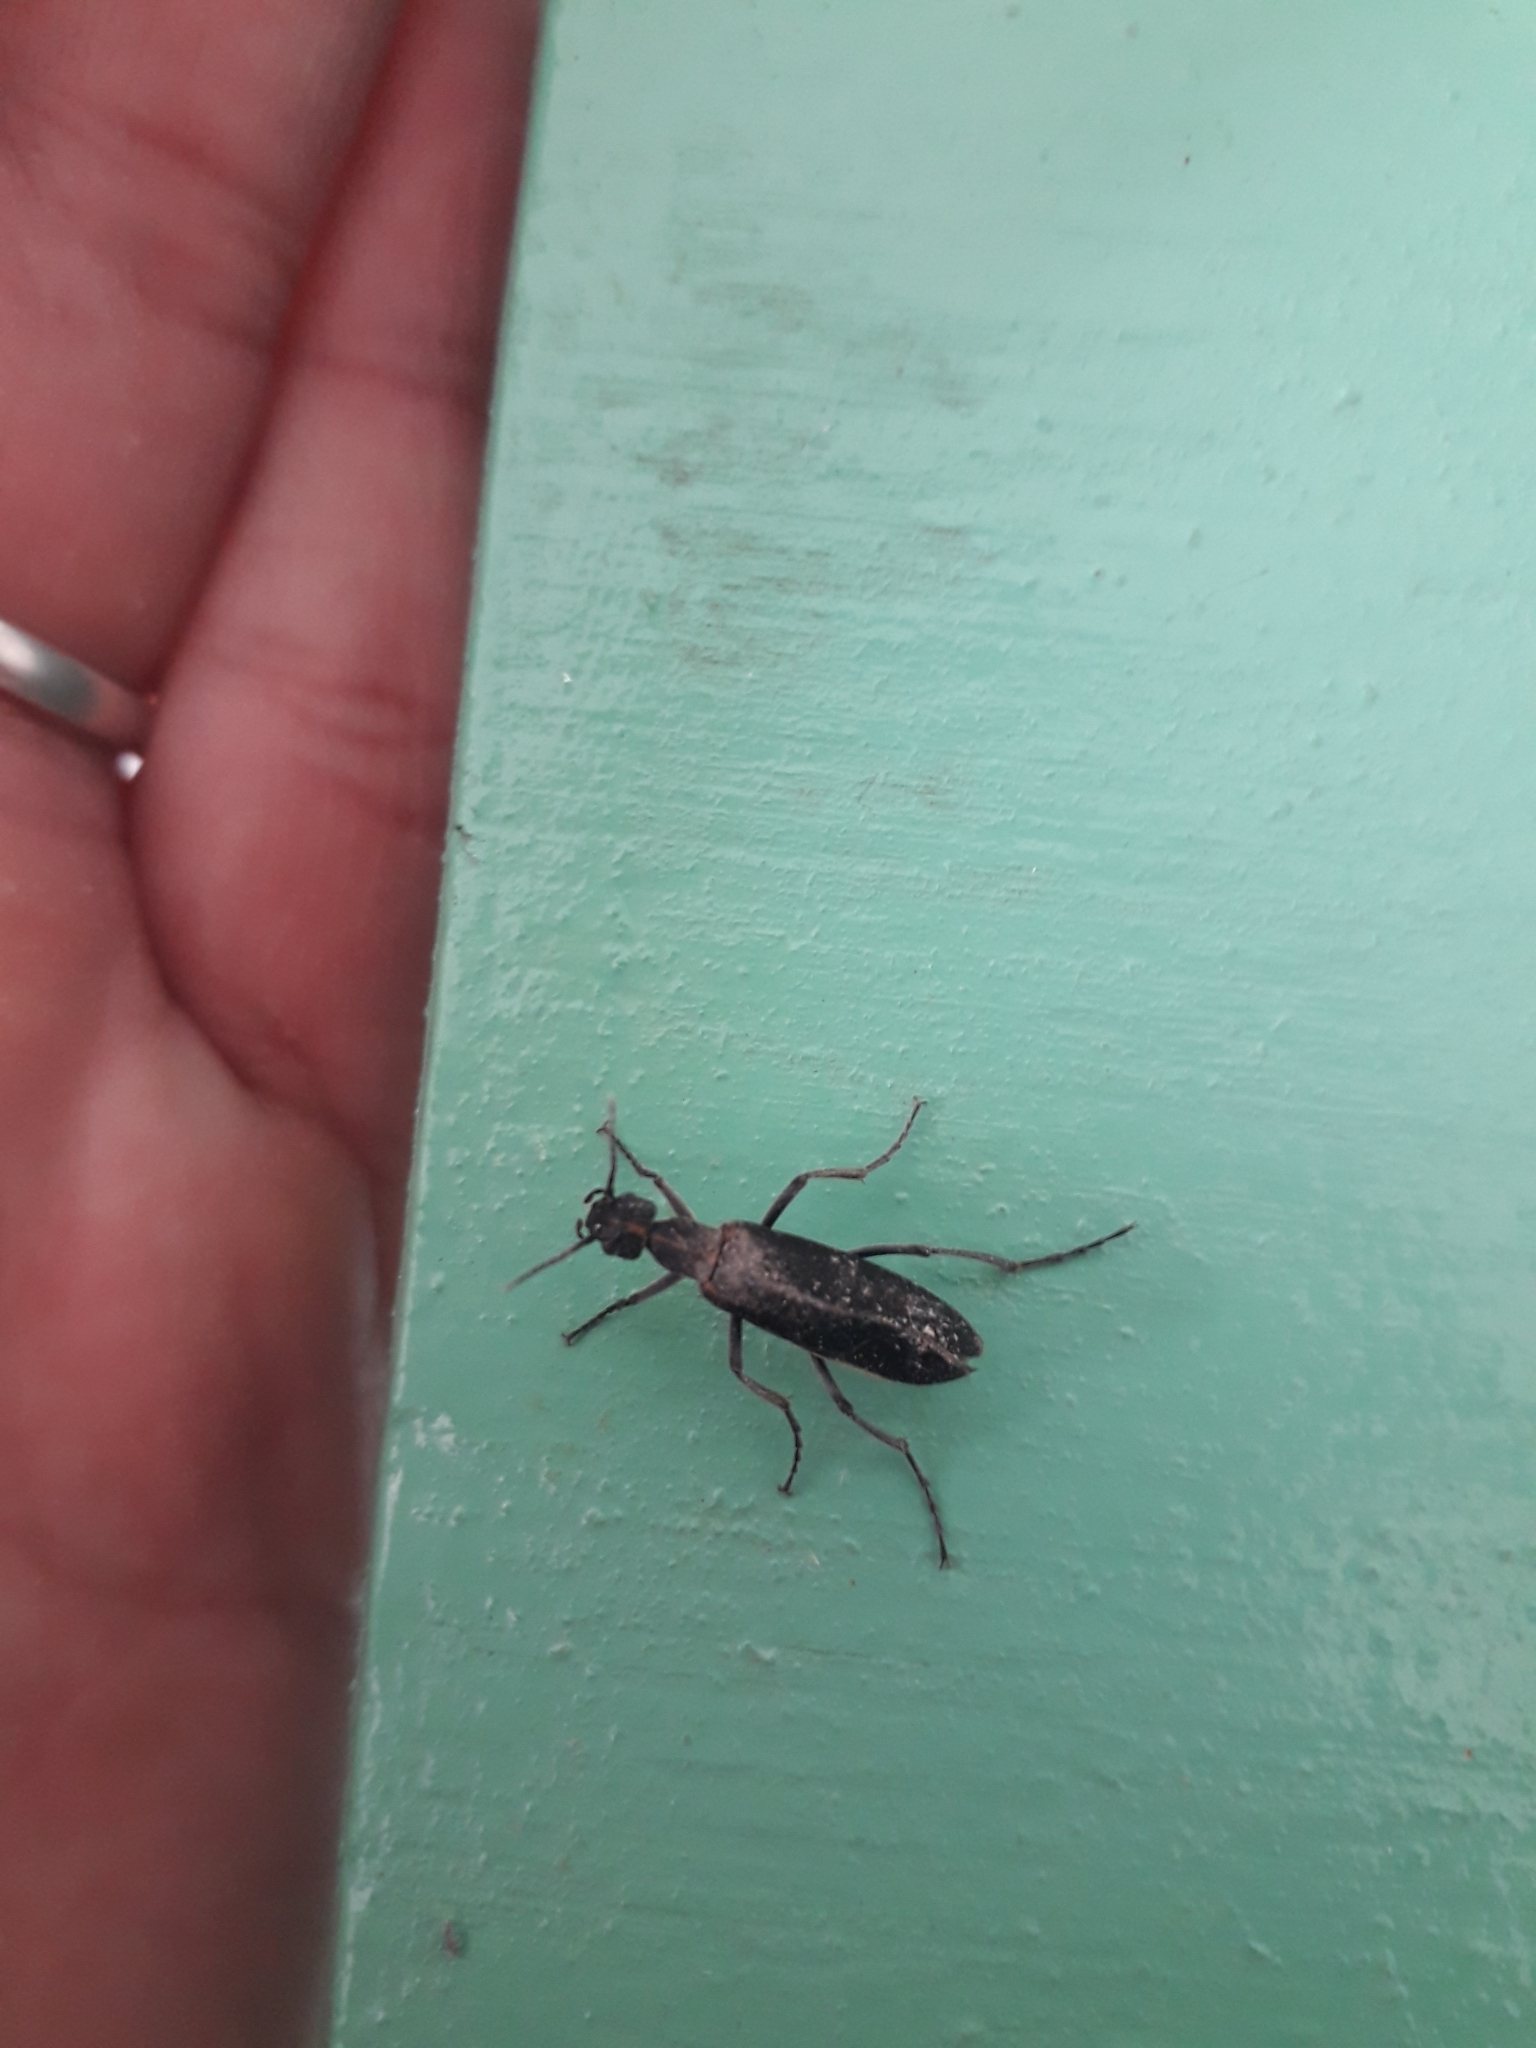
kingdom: Animalia
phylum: Arthropoda
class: Insecta
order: Coleoptera
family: Meloidae
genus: Epicauta
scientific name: Epicauta clericalis
